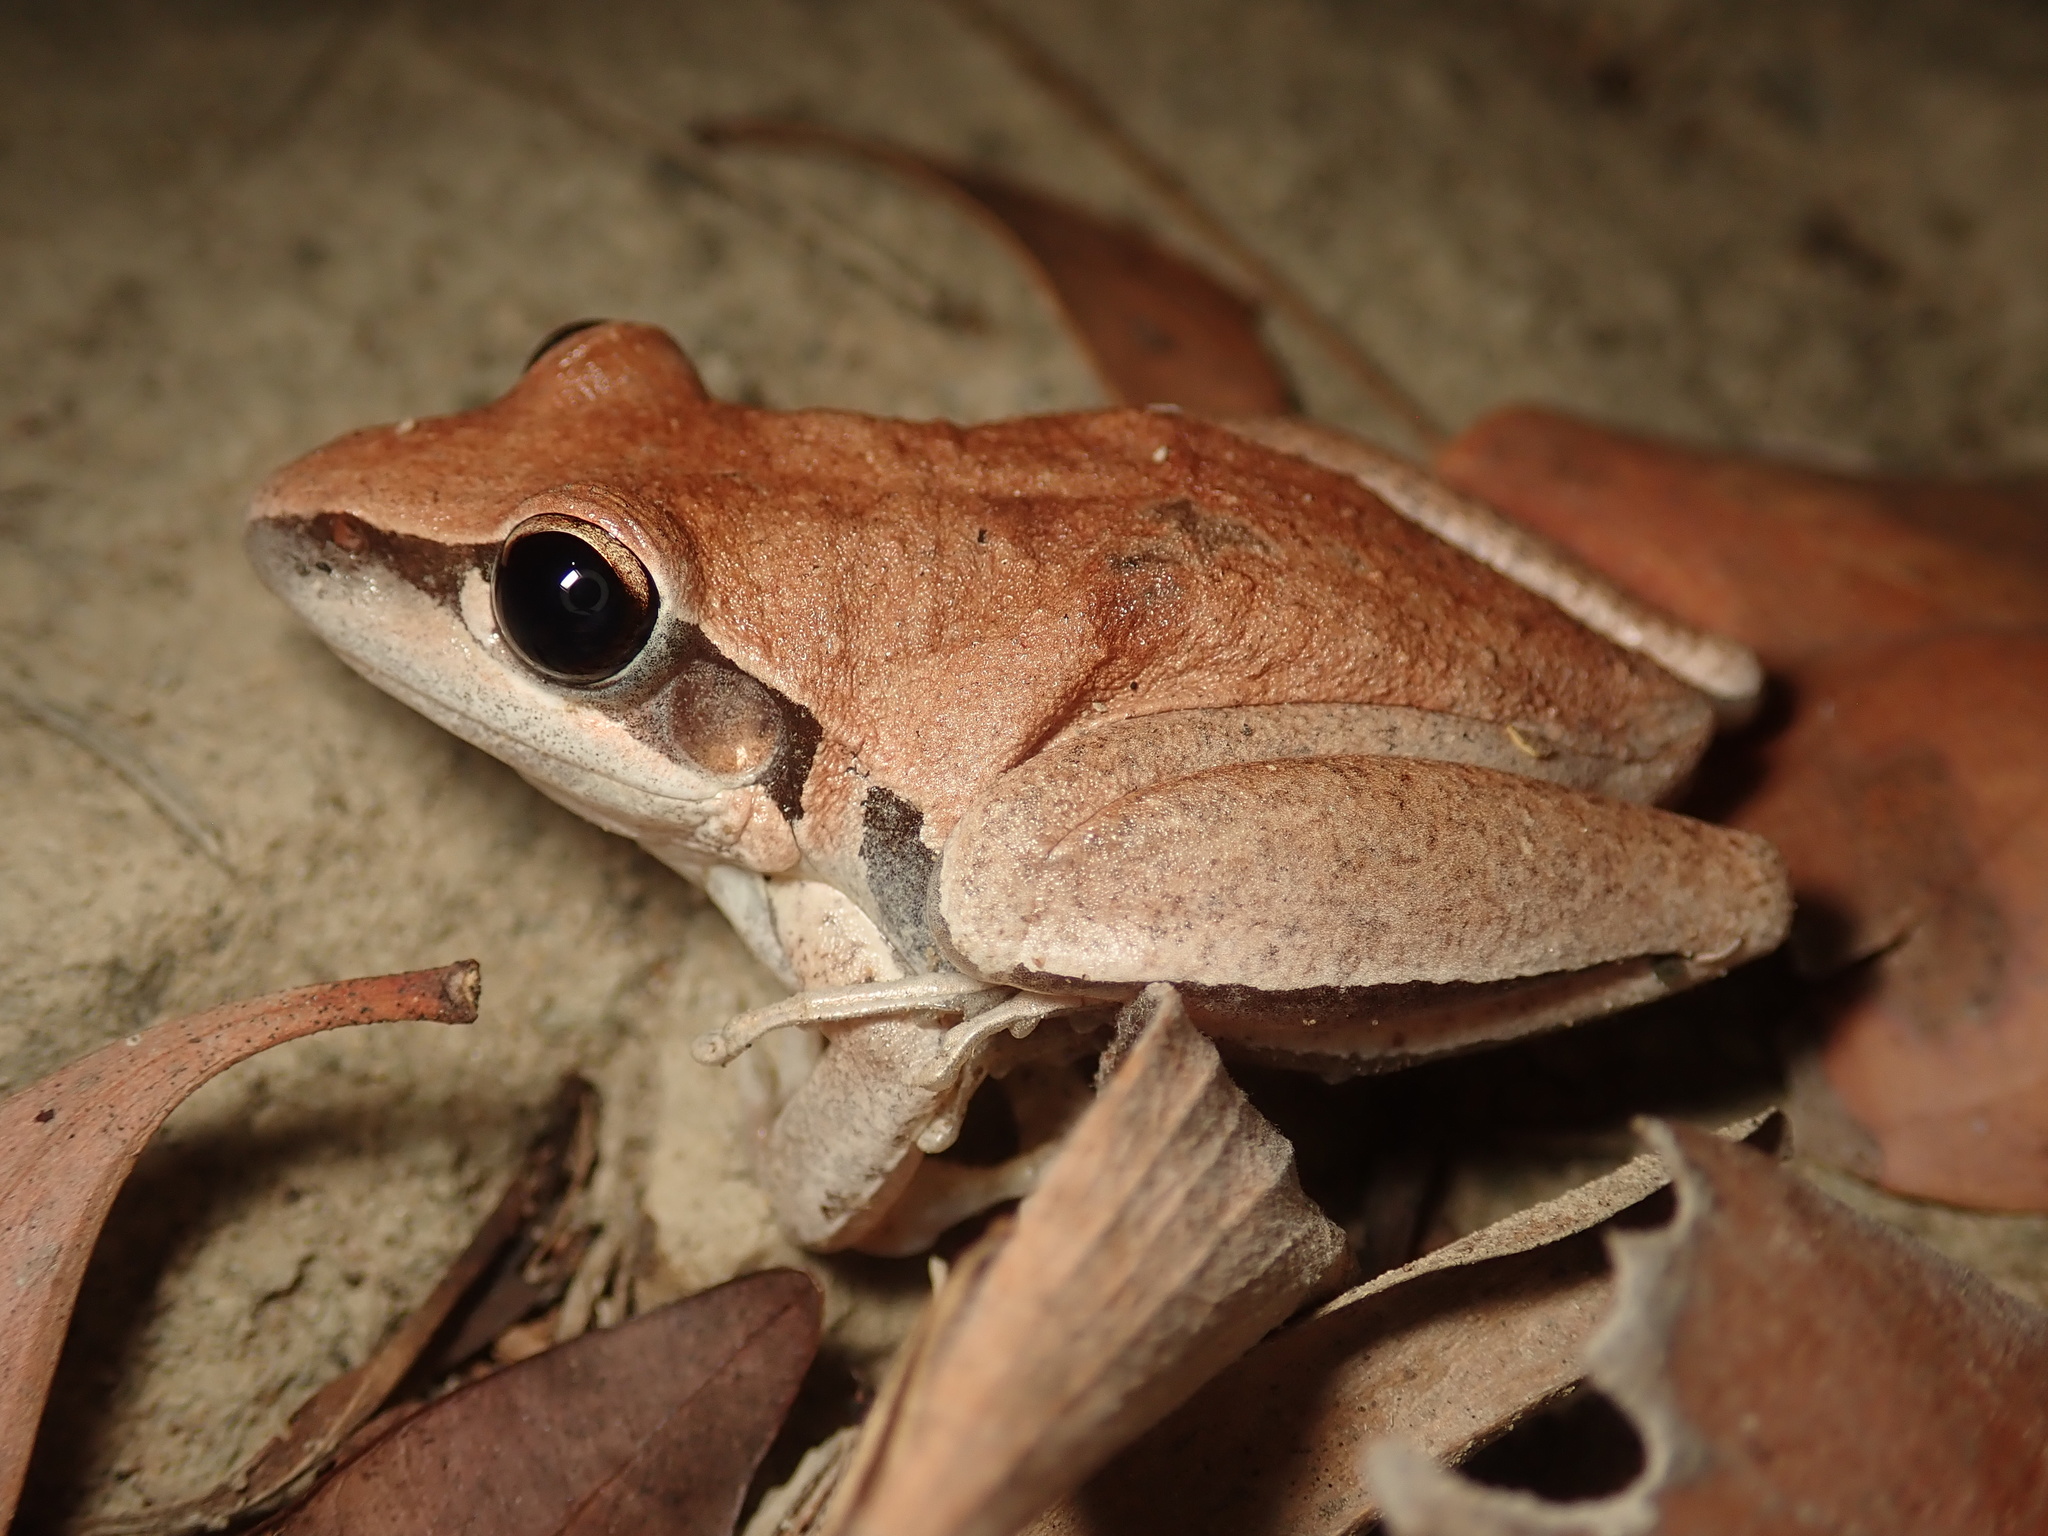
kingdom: Animalia
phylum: Chordata
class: Amphibia
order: Anura
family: Pelodryadidae
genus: Litoria
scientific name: Litoria nigrofrenata
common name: Bridle frog
